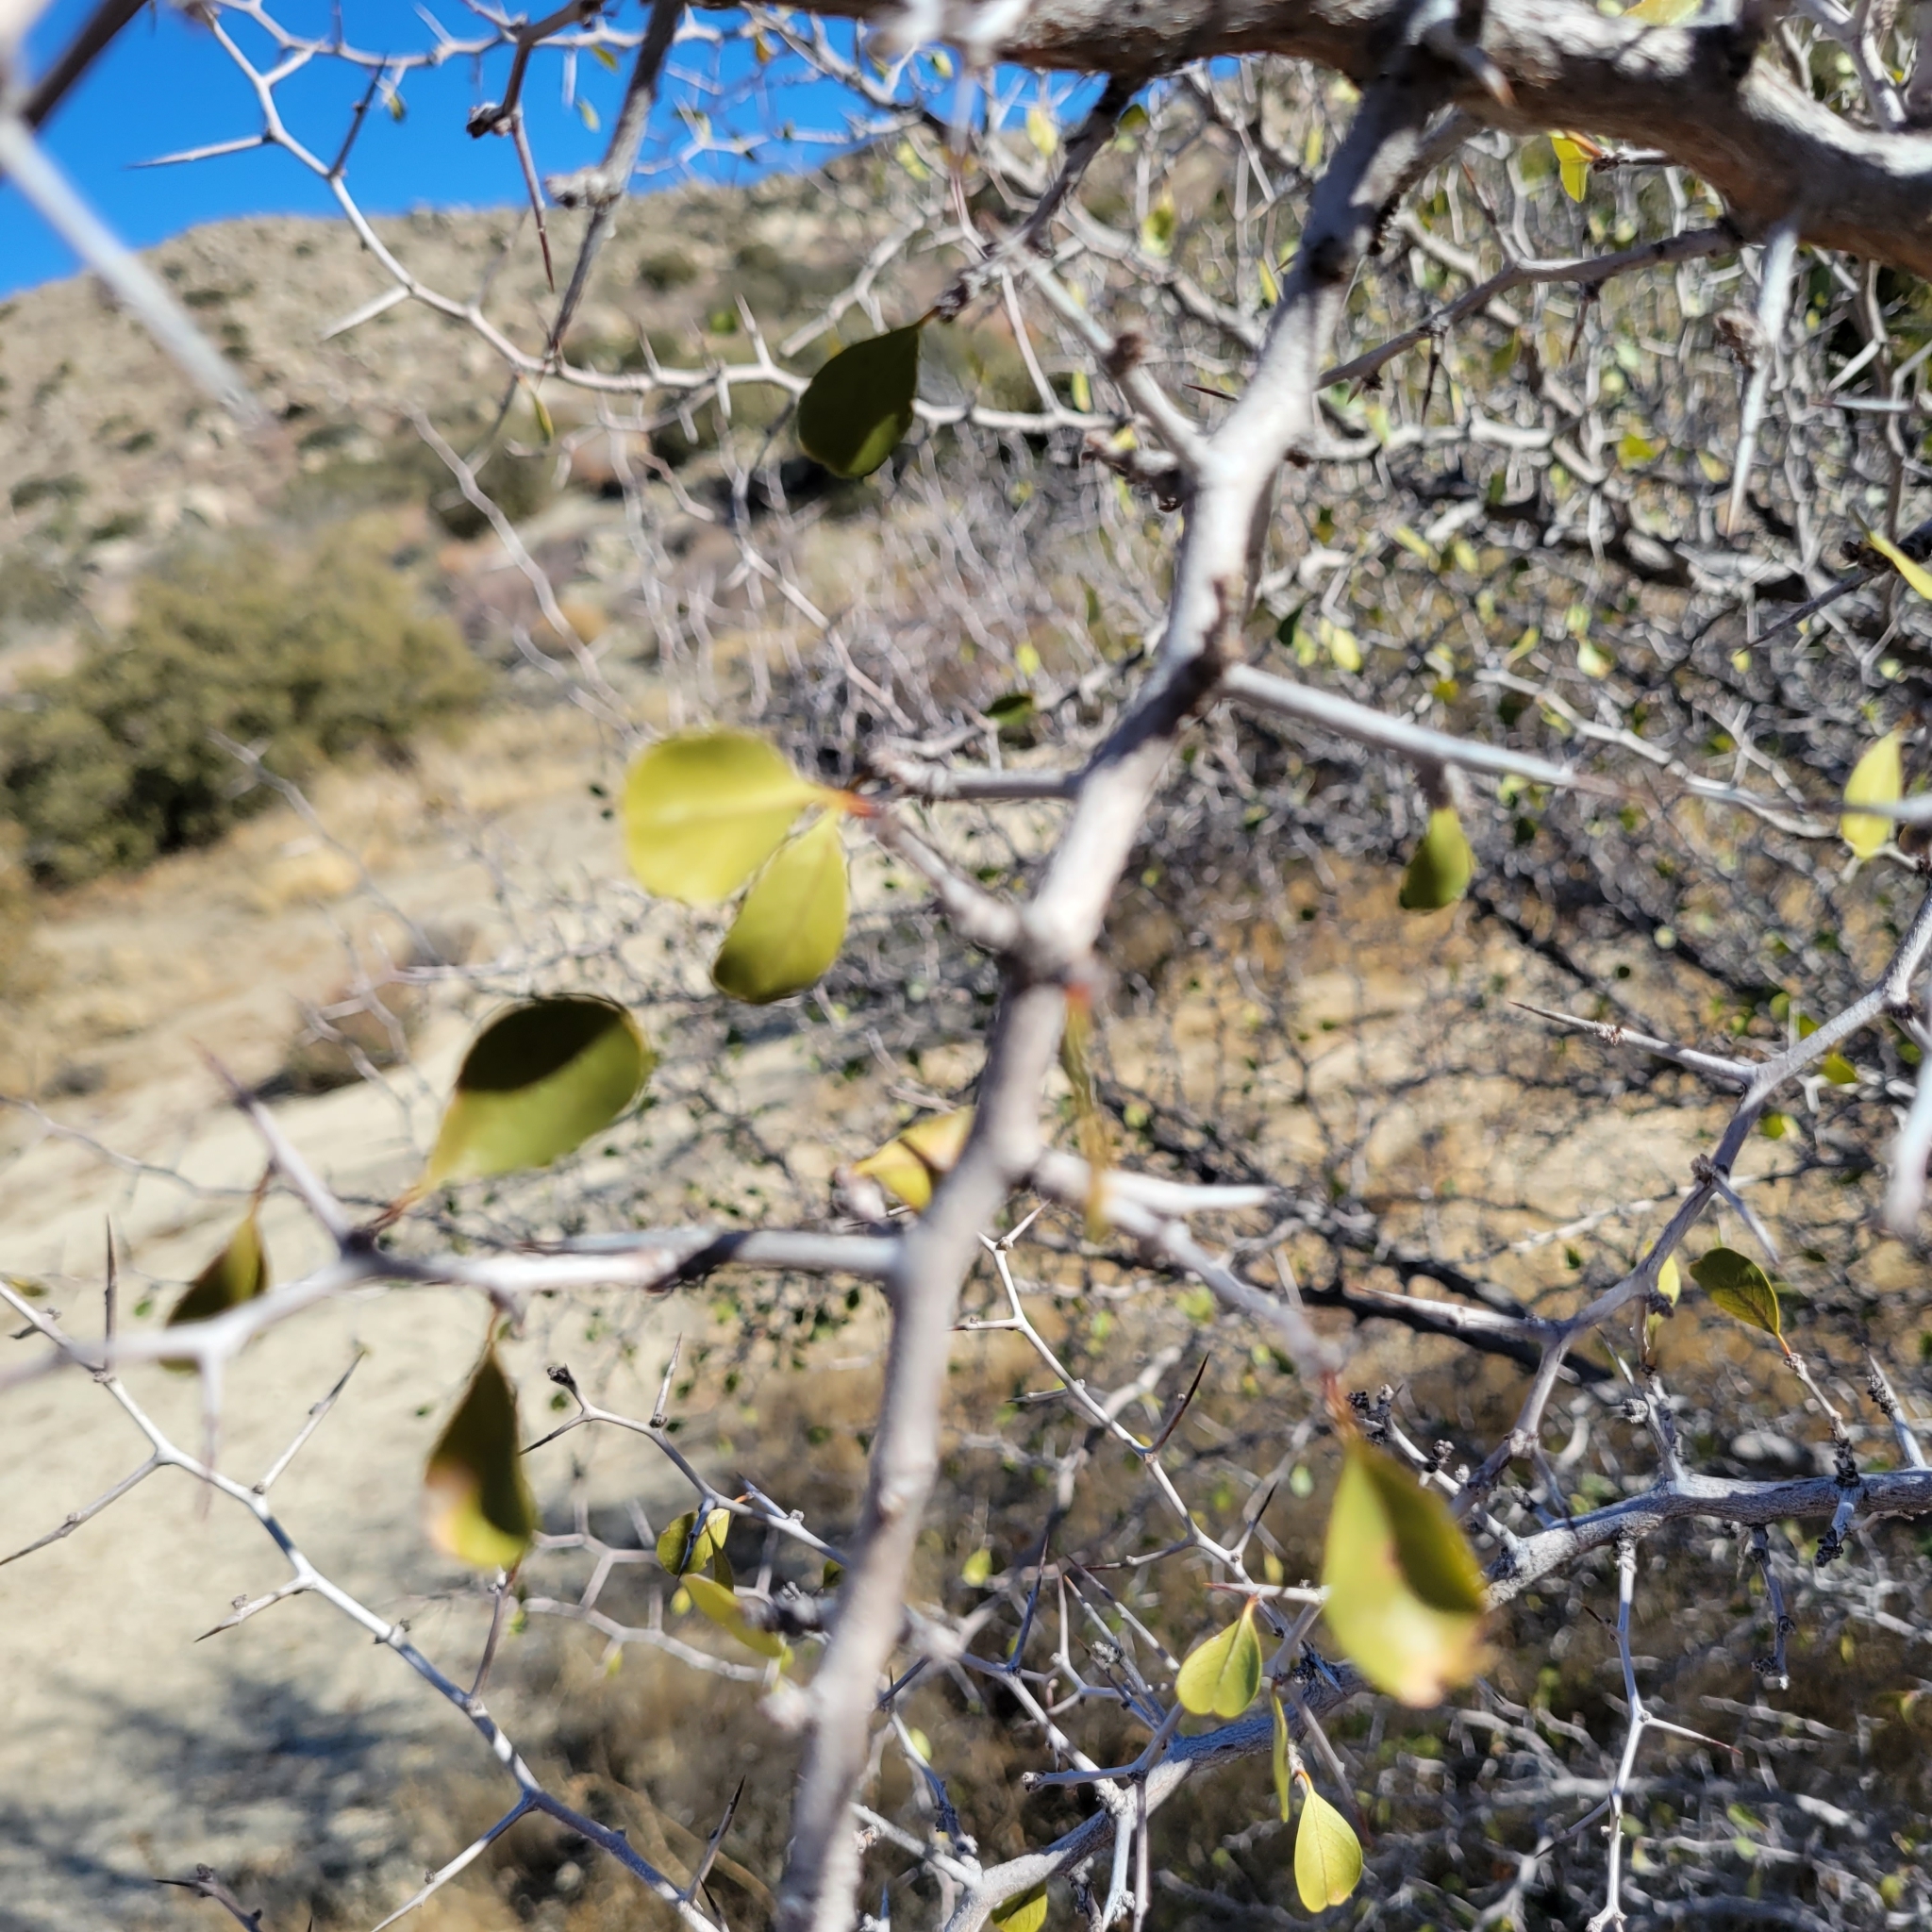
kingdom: Plantae
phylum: Tracheophyta
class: Magnoliopsida
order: Rosales
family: Rhamnaceae
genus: Pseudoziziphus
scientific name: Pseudoziziphus parryi
